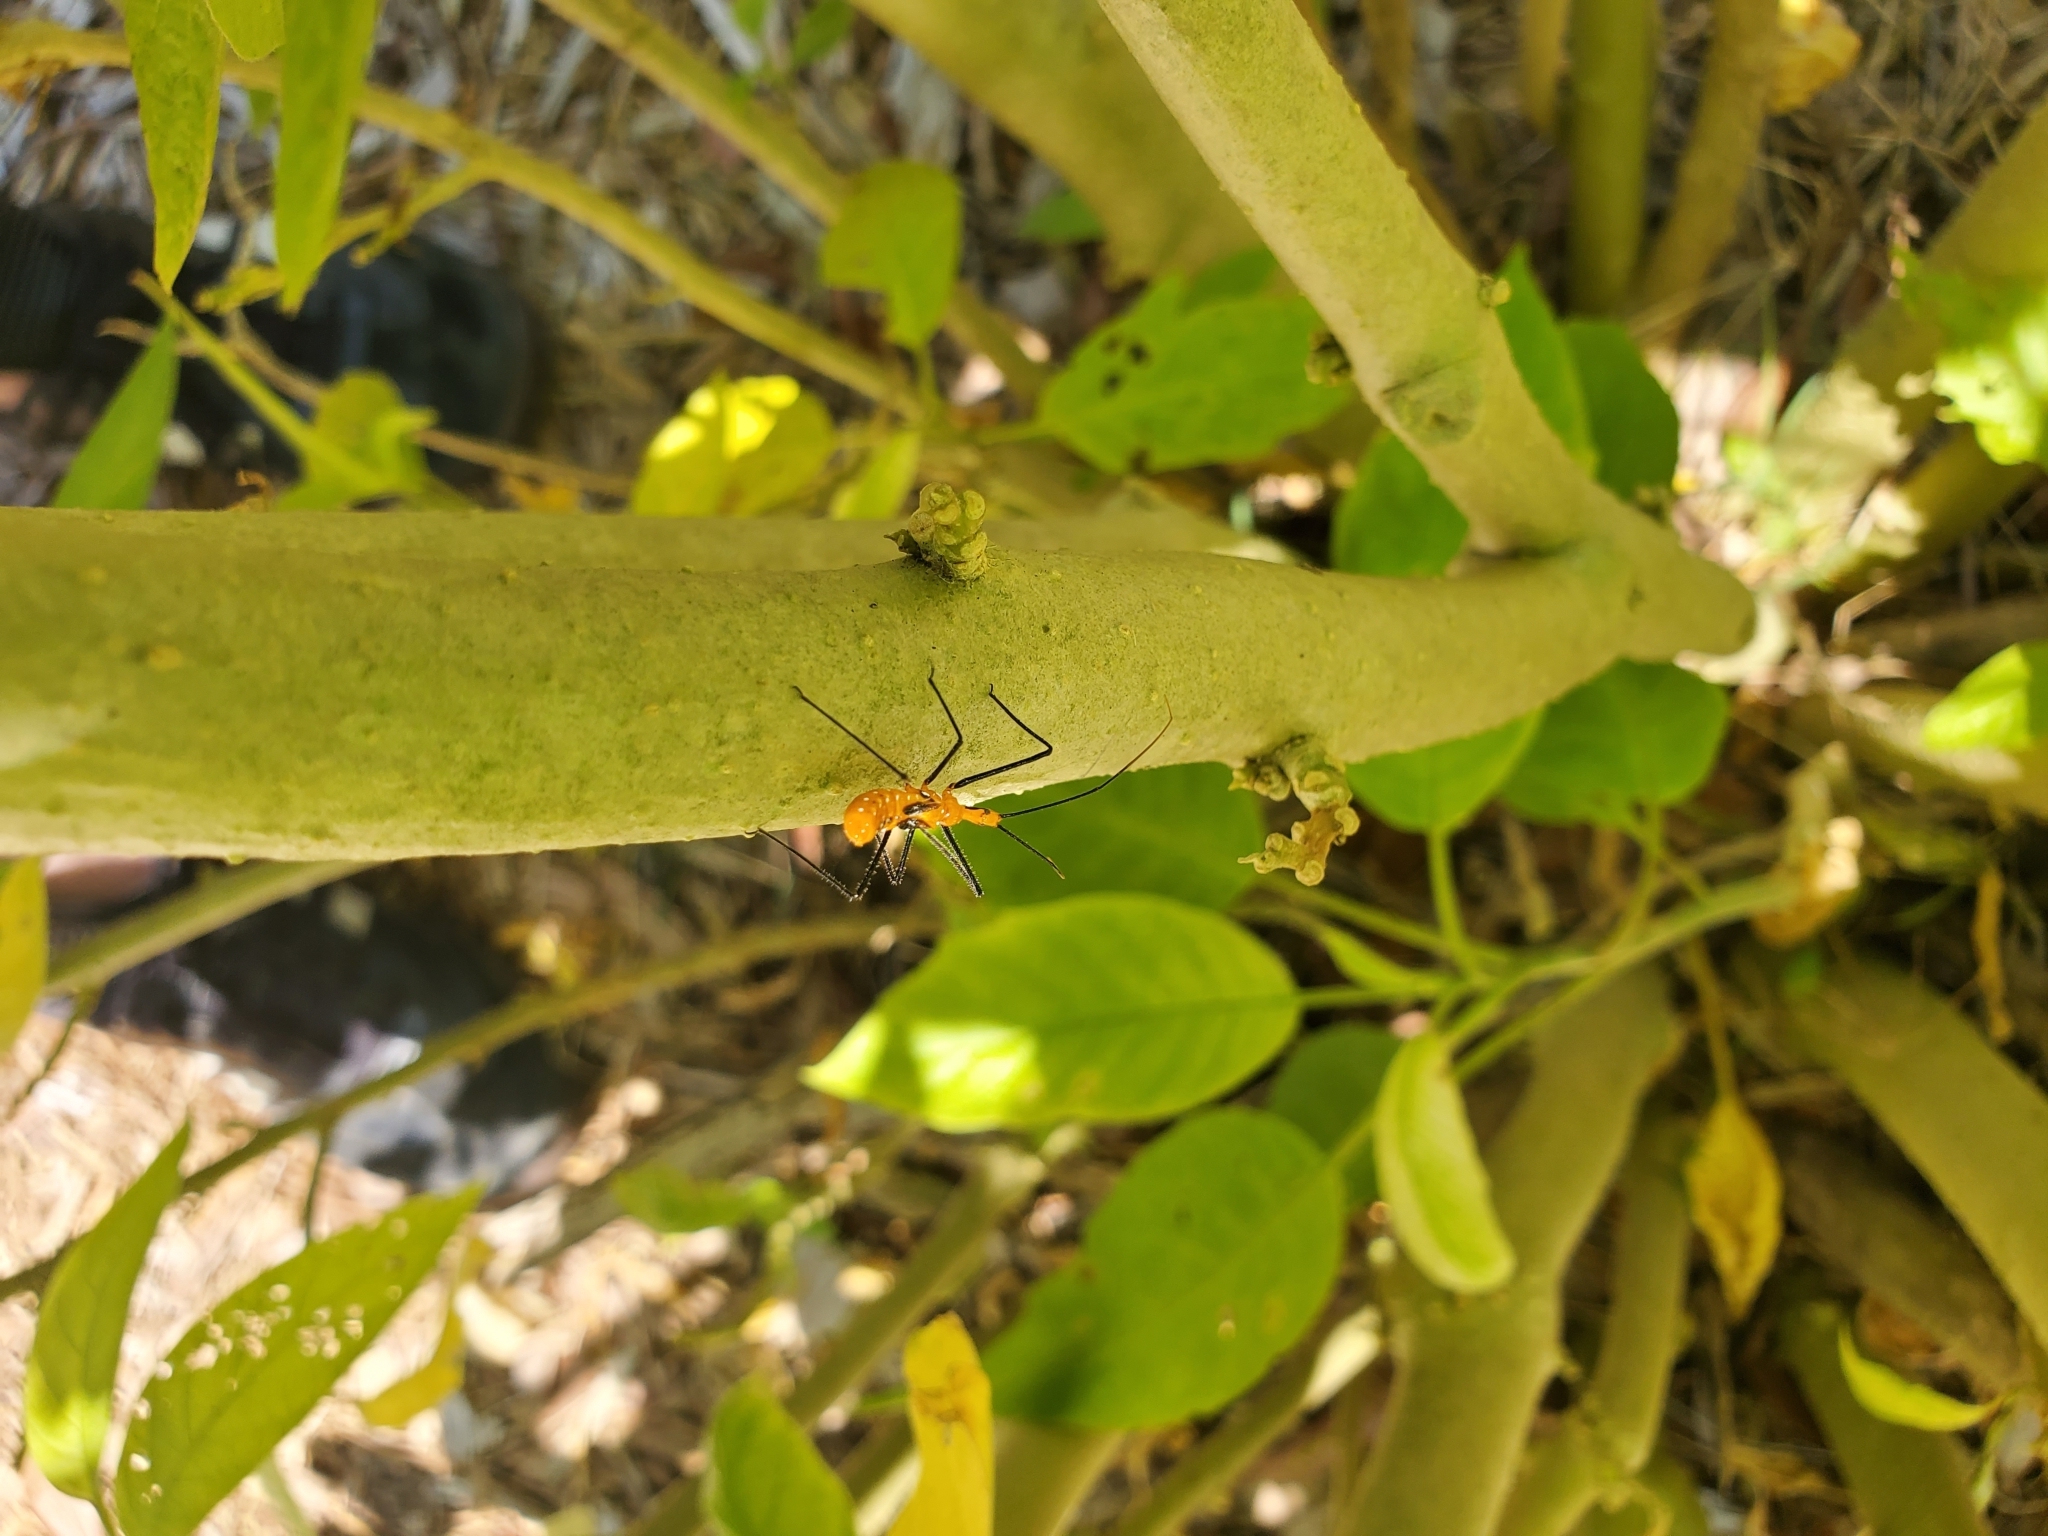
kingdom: Animalia
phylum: Arthropoda
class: Insecta
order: Hemiptera
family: Reduviidae
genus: Zelus
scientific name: Zelus longipes
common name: Milkweed assassin bug
